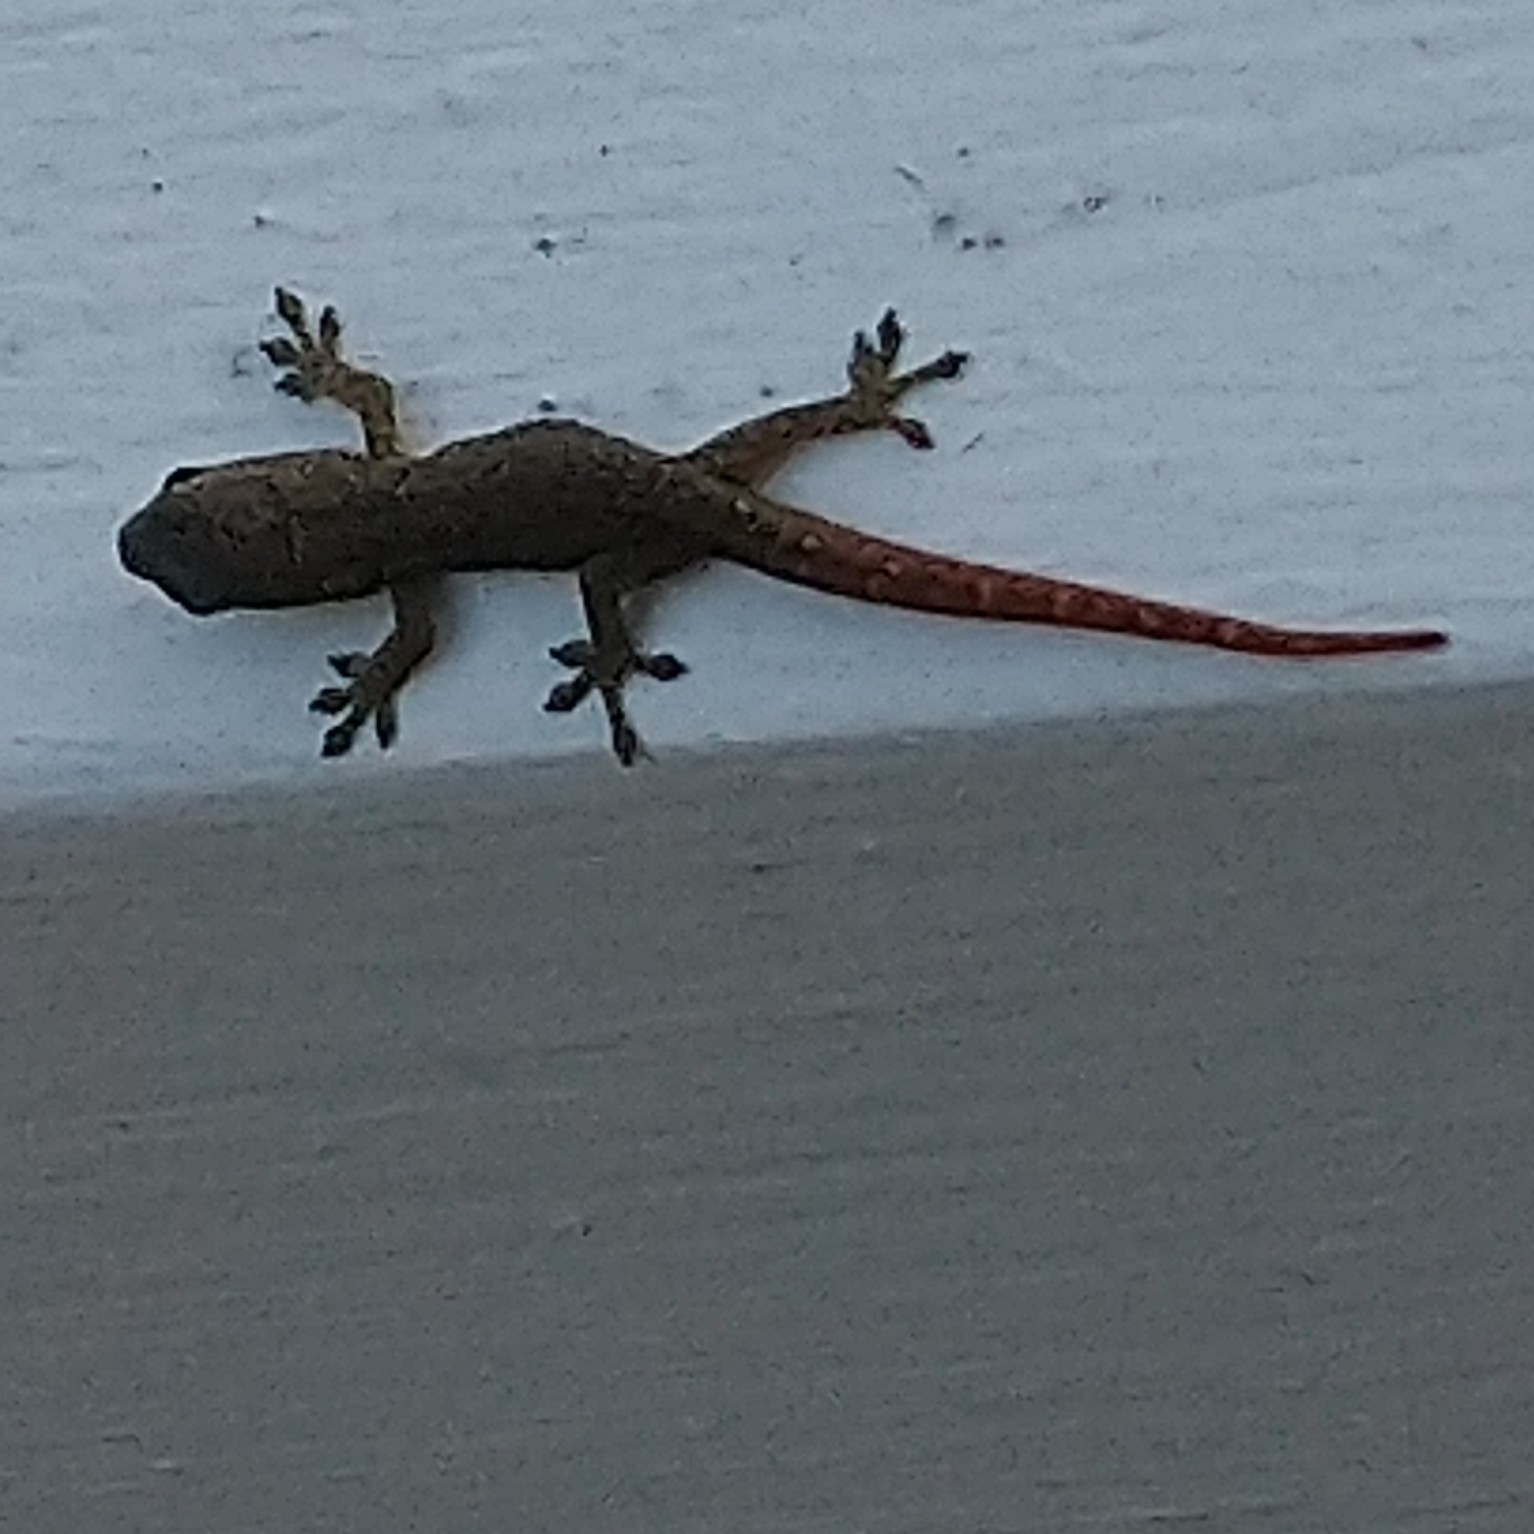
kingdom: Animalia
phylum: Chordata
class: Squamata
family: Gekkonidae
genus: Lygodactylus
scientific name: Lygodactylus capensis
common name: Cape dwarf gecko
